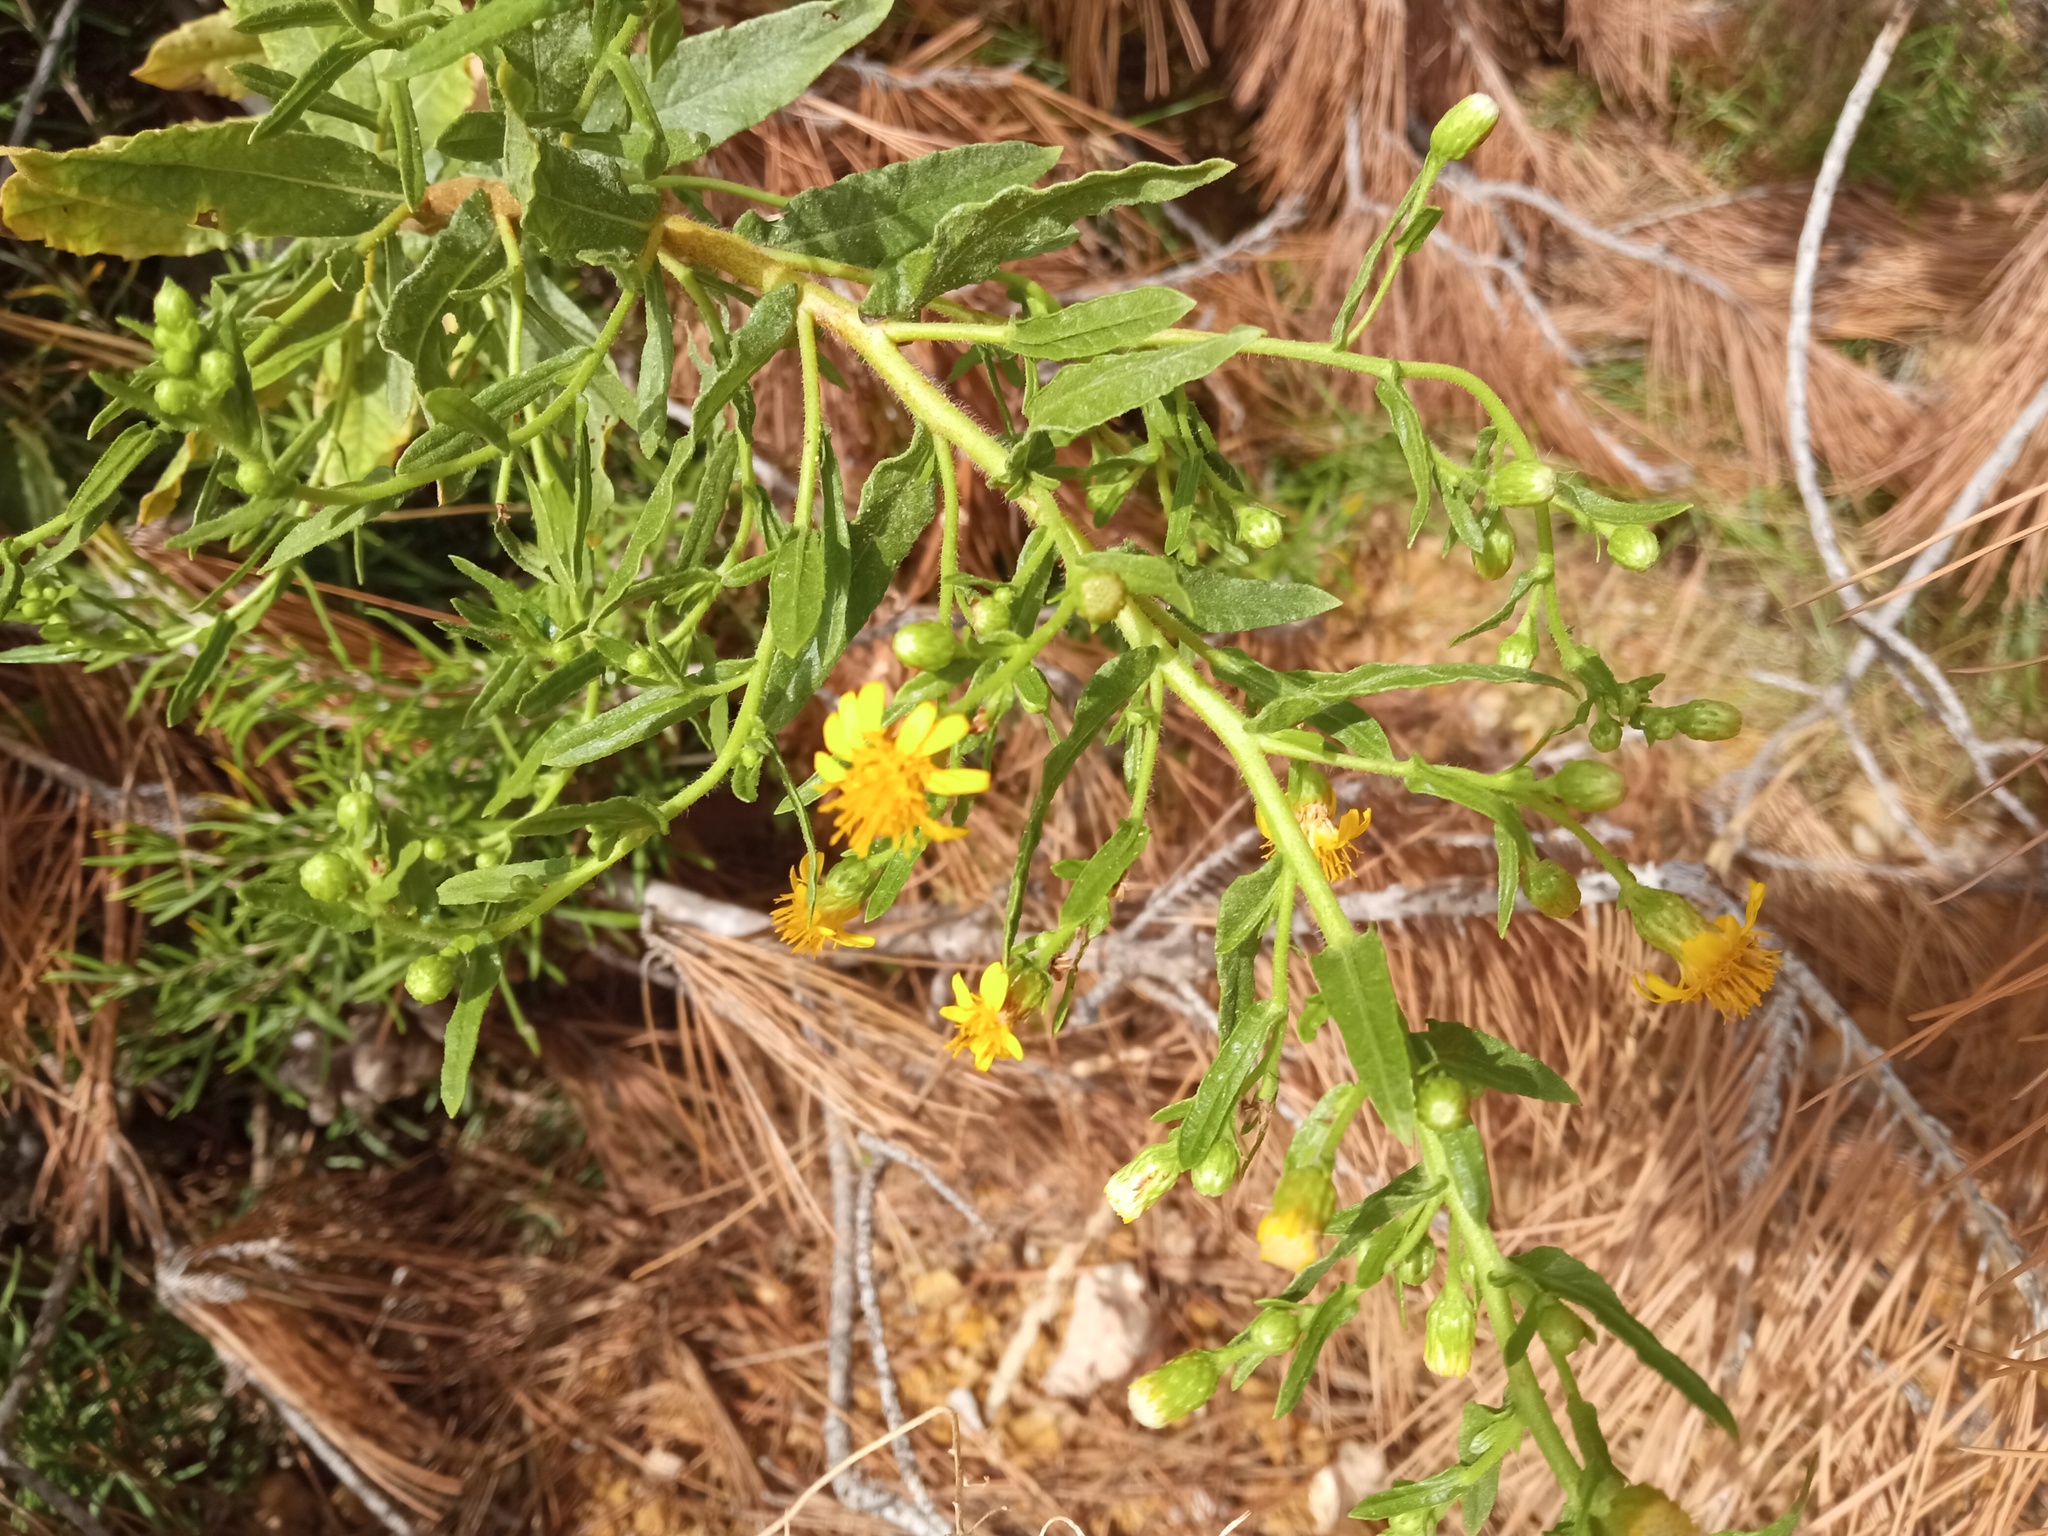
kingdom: Plantae
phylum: Tracheophyta
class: Magnoliopsida
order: Asterales
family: Asteraceae
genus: Dittrichia
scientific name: Dittrichia viscosa
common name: Woody fleabane
